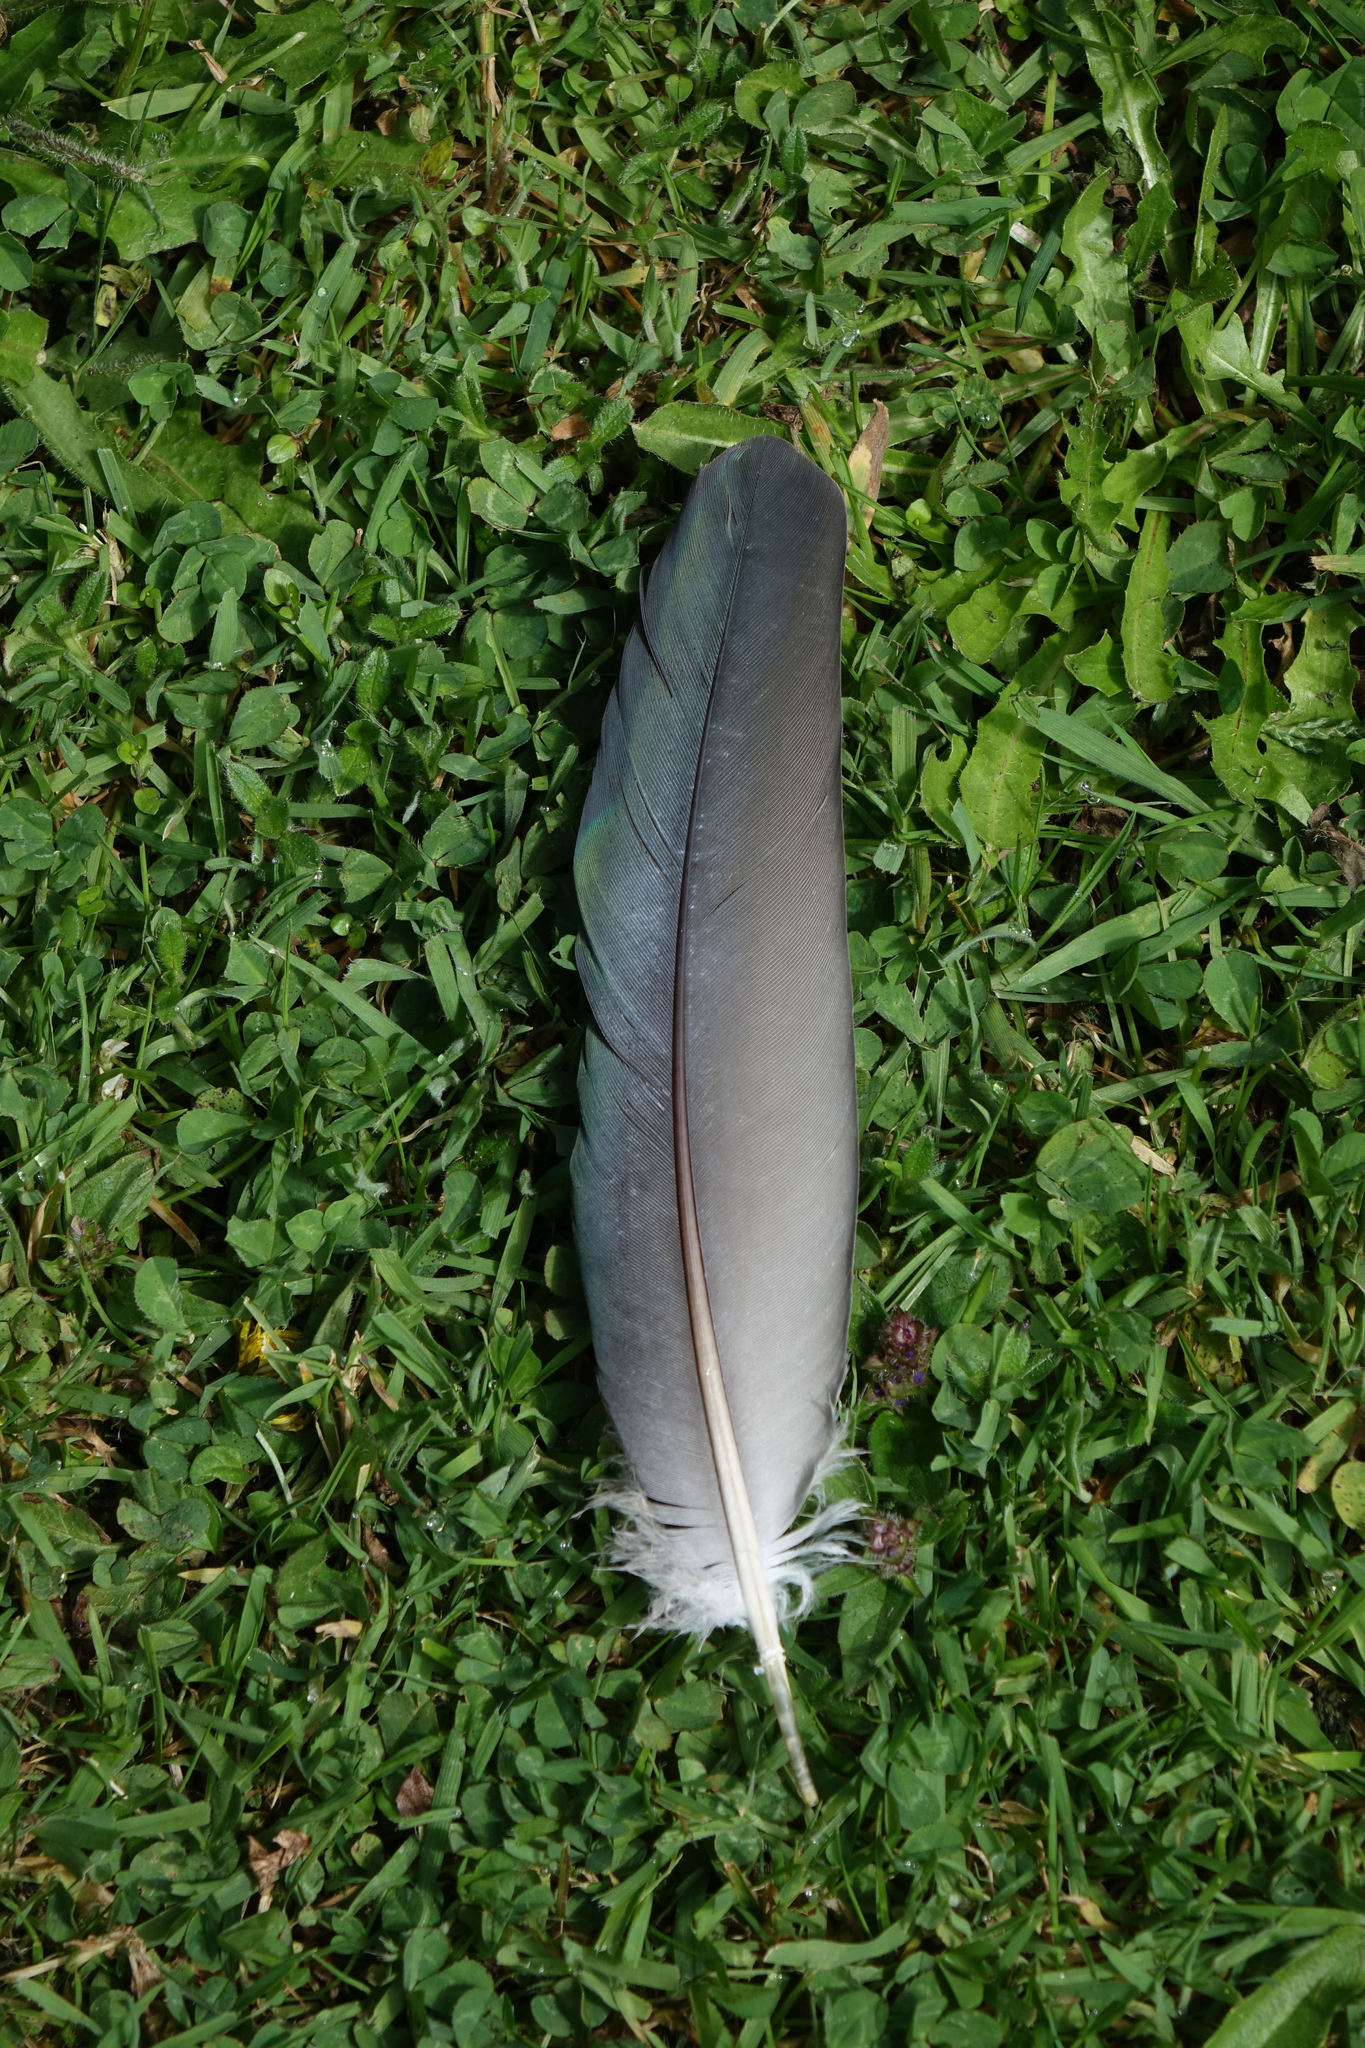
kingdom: Animalia
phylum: Chordata
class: Aves
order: Columbiformes
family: Columbidae
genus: Hemiphaga
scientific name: Hemiphaga novaeseelandiae
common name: New zealand pigeon
